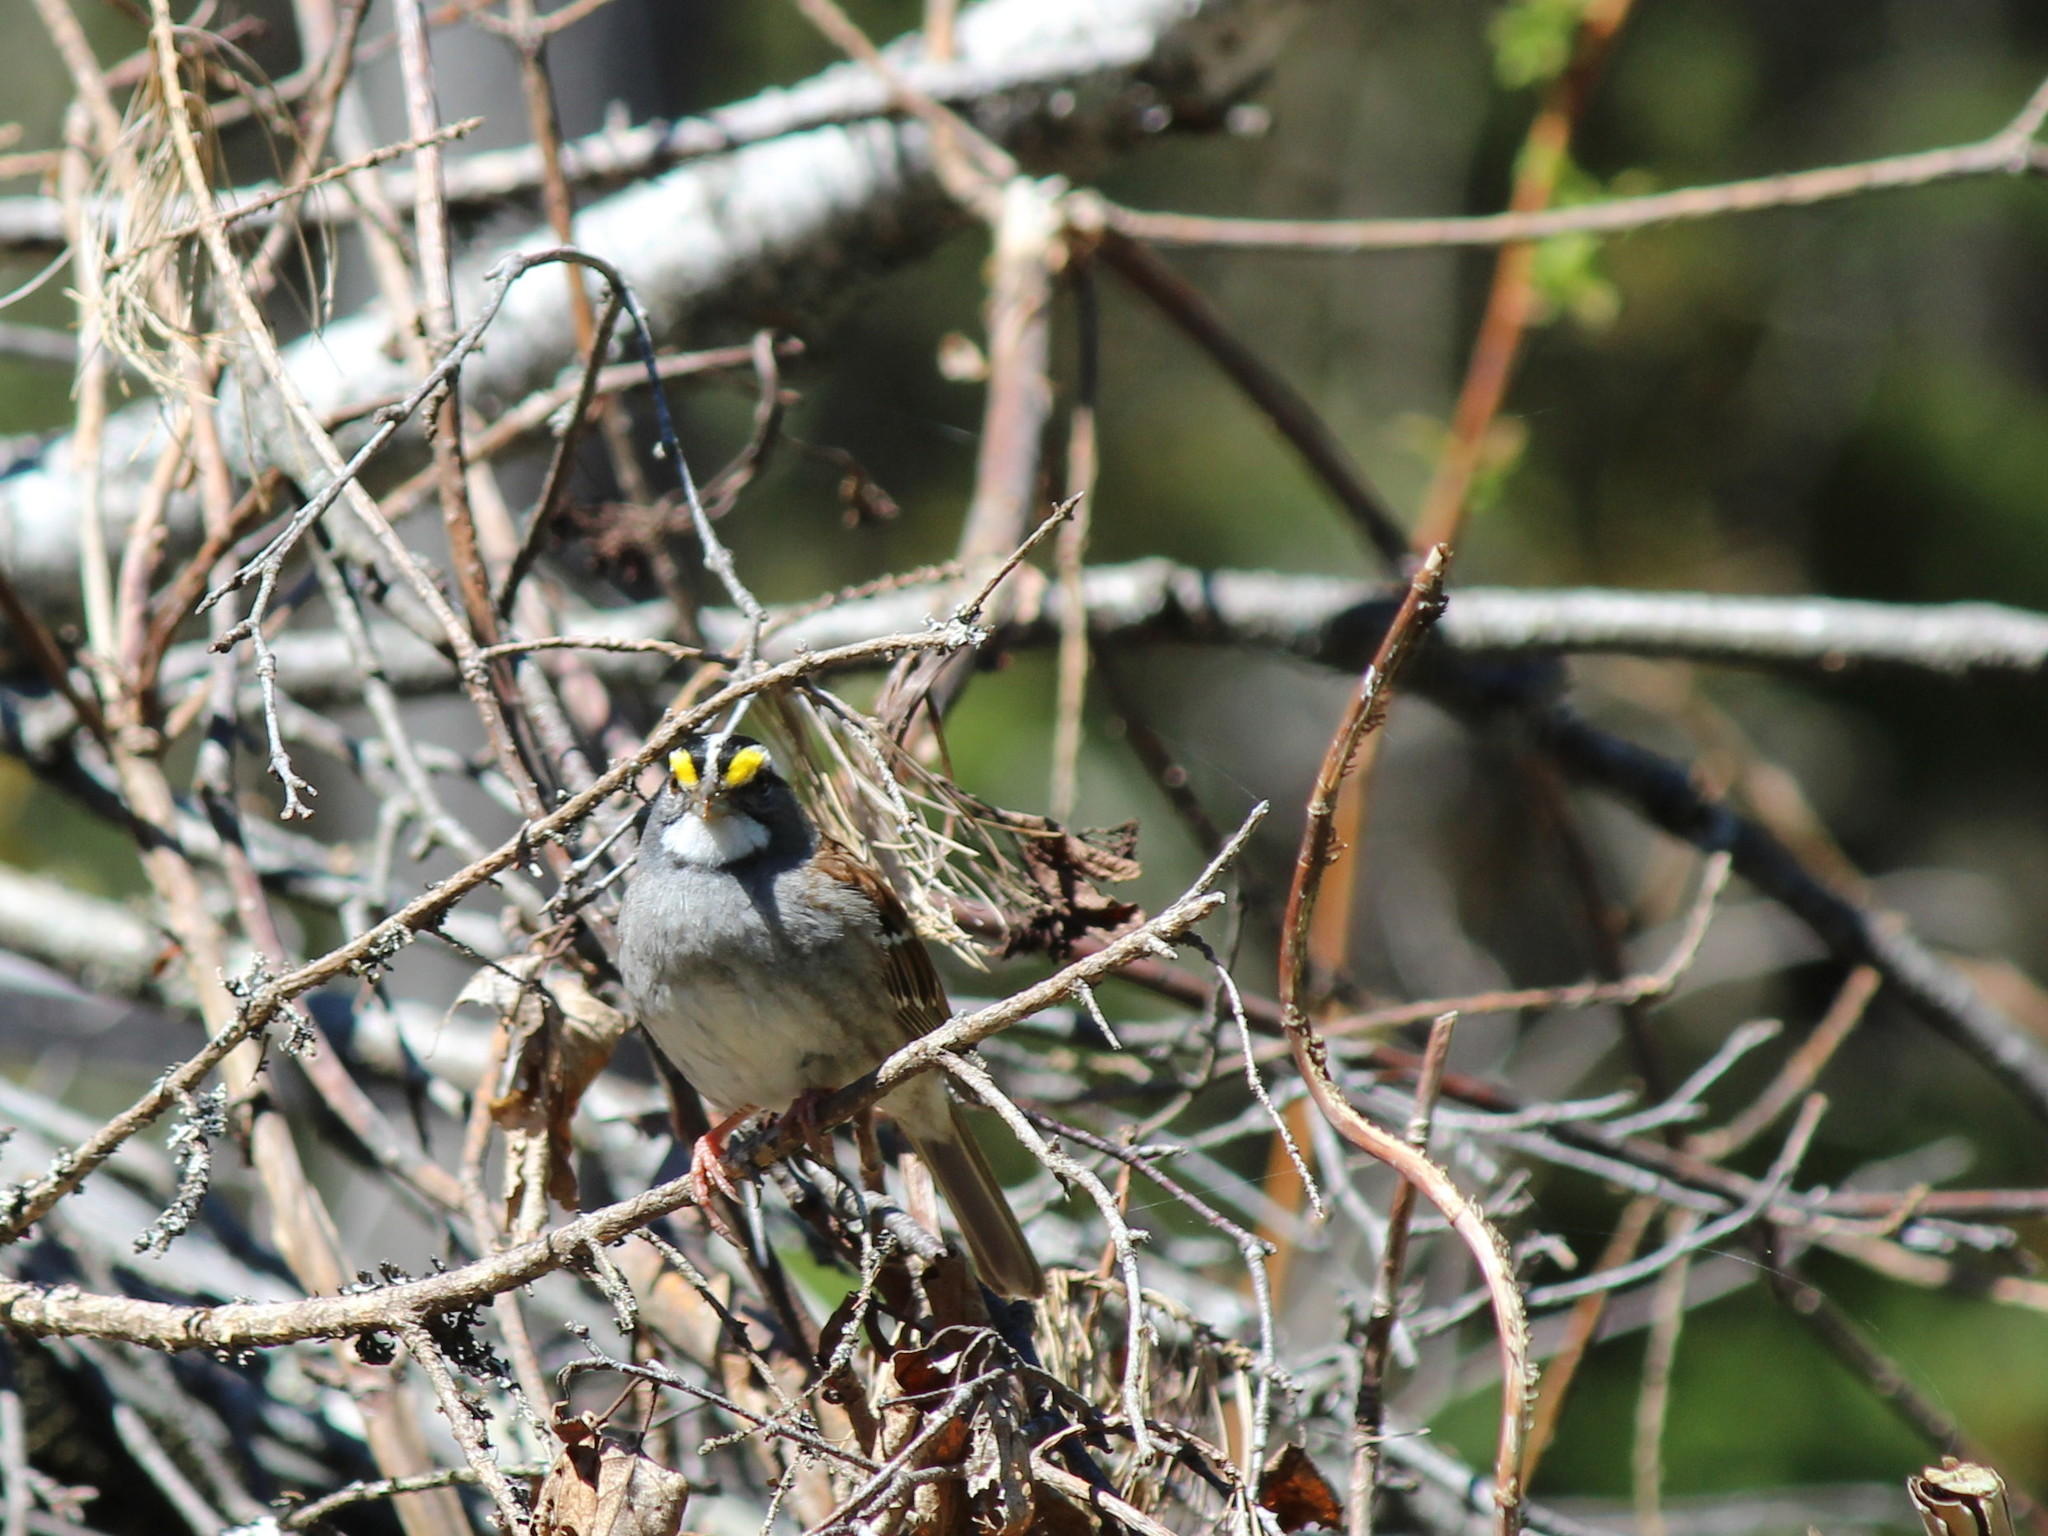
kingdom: Animalia
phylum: Chordata
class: Aves
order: Passeriformes
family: Passerellidae
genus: Zonotrichia
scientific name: Zonotrichia albicollis
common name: White-throated sparrow
